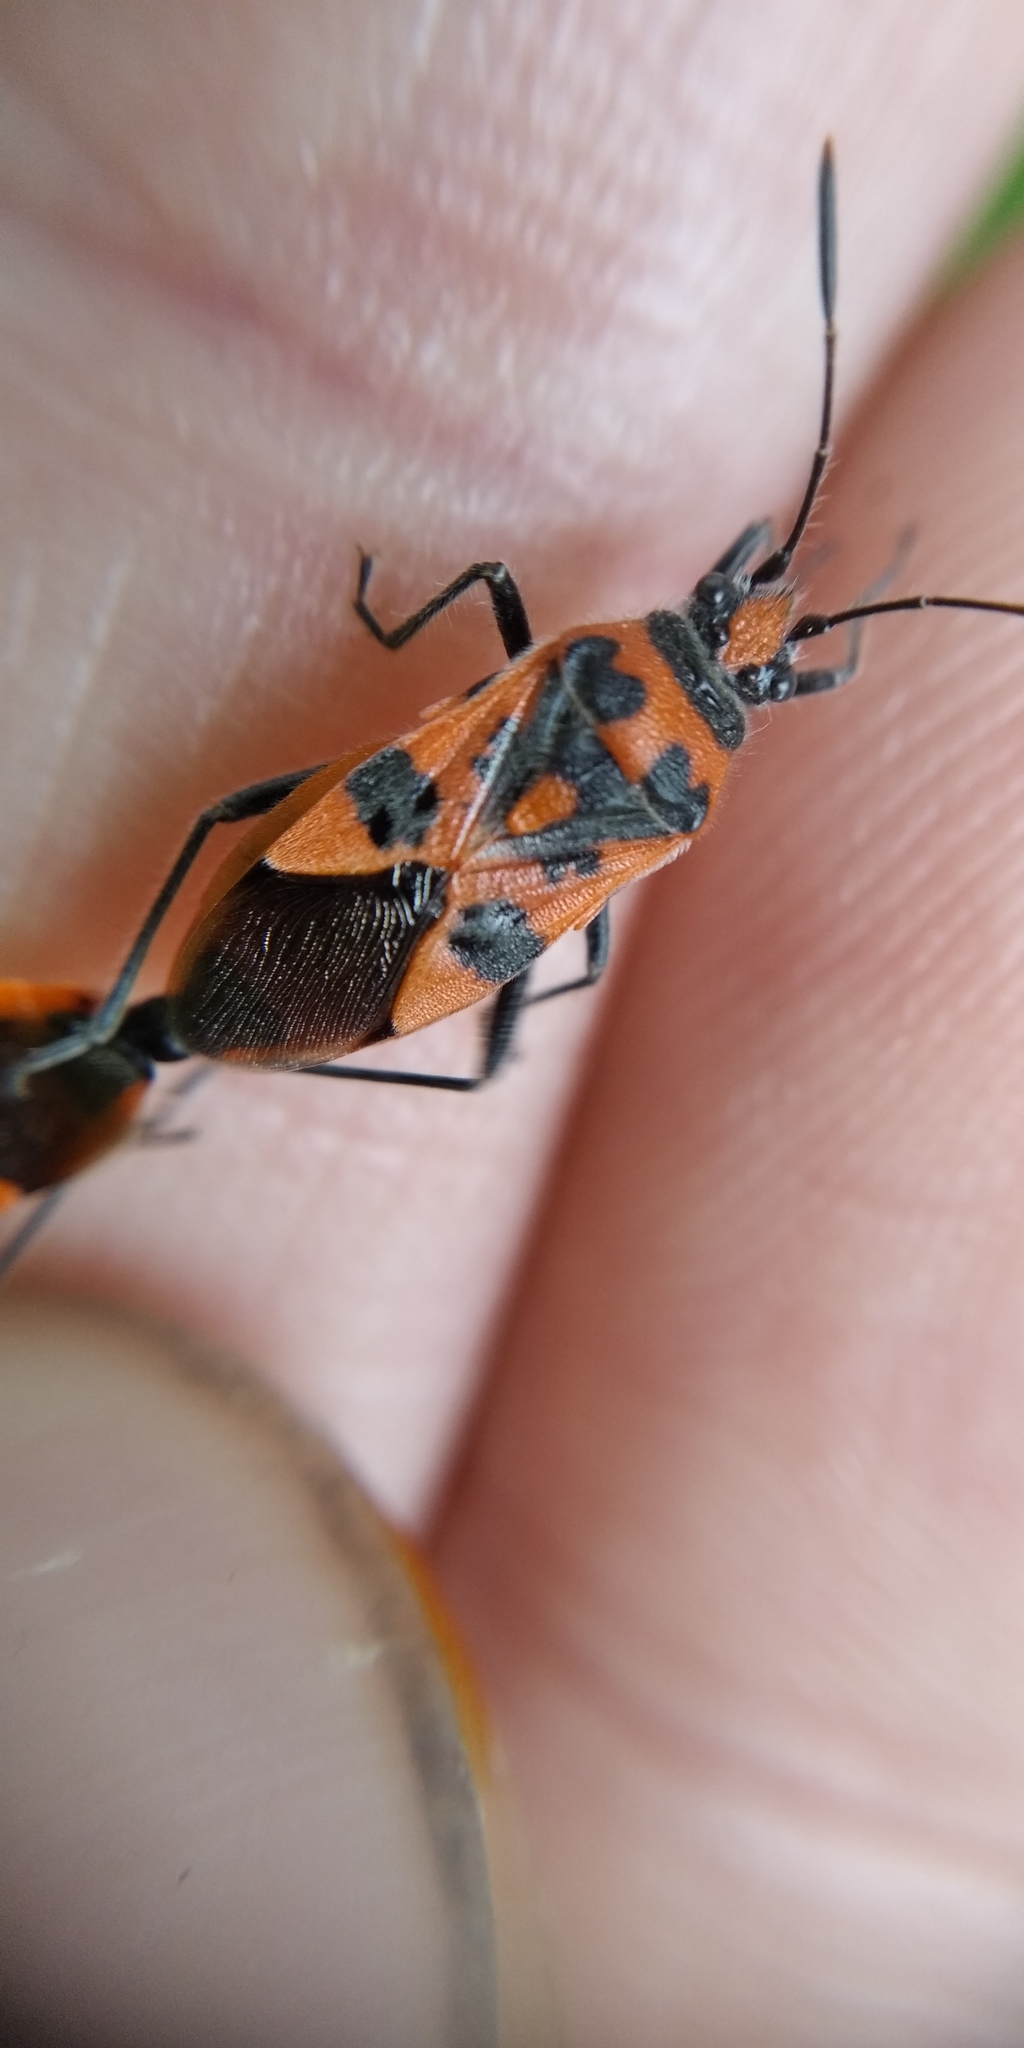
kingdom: Animalia
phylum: Arthropoda
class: Insecta
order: Hemiptera
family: Rhopalidae
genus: Corizus
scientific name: Corizus hyoscyami
